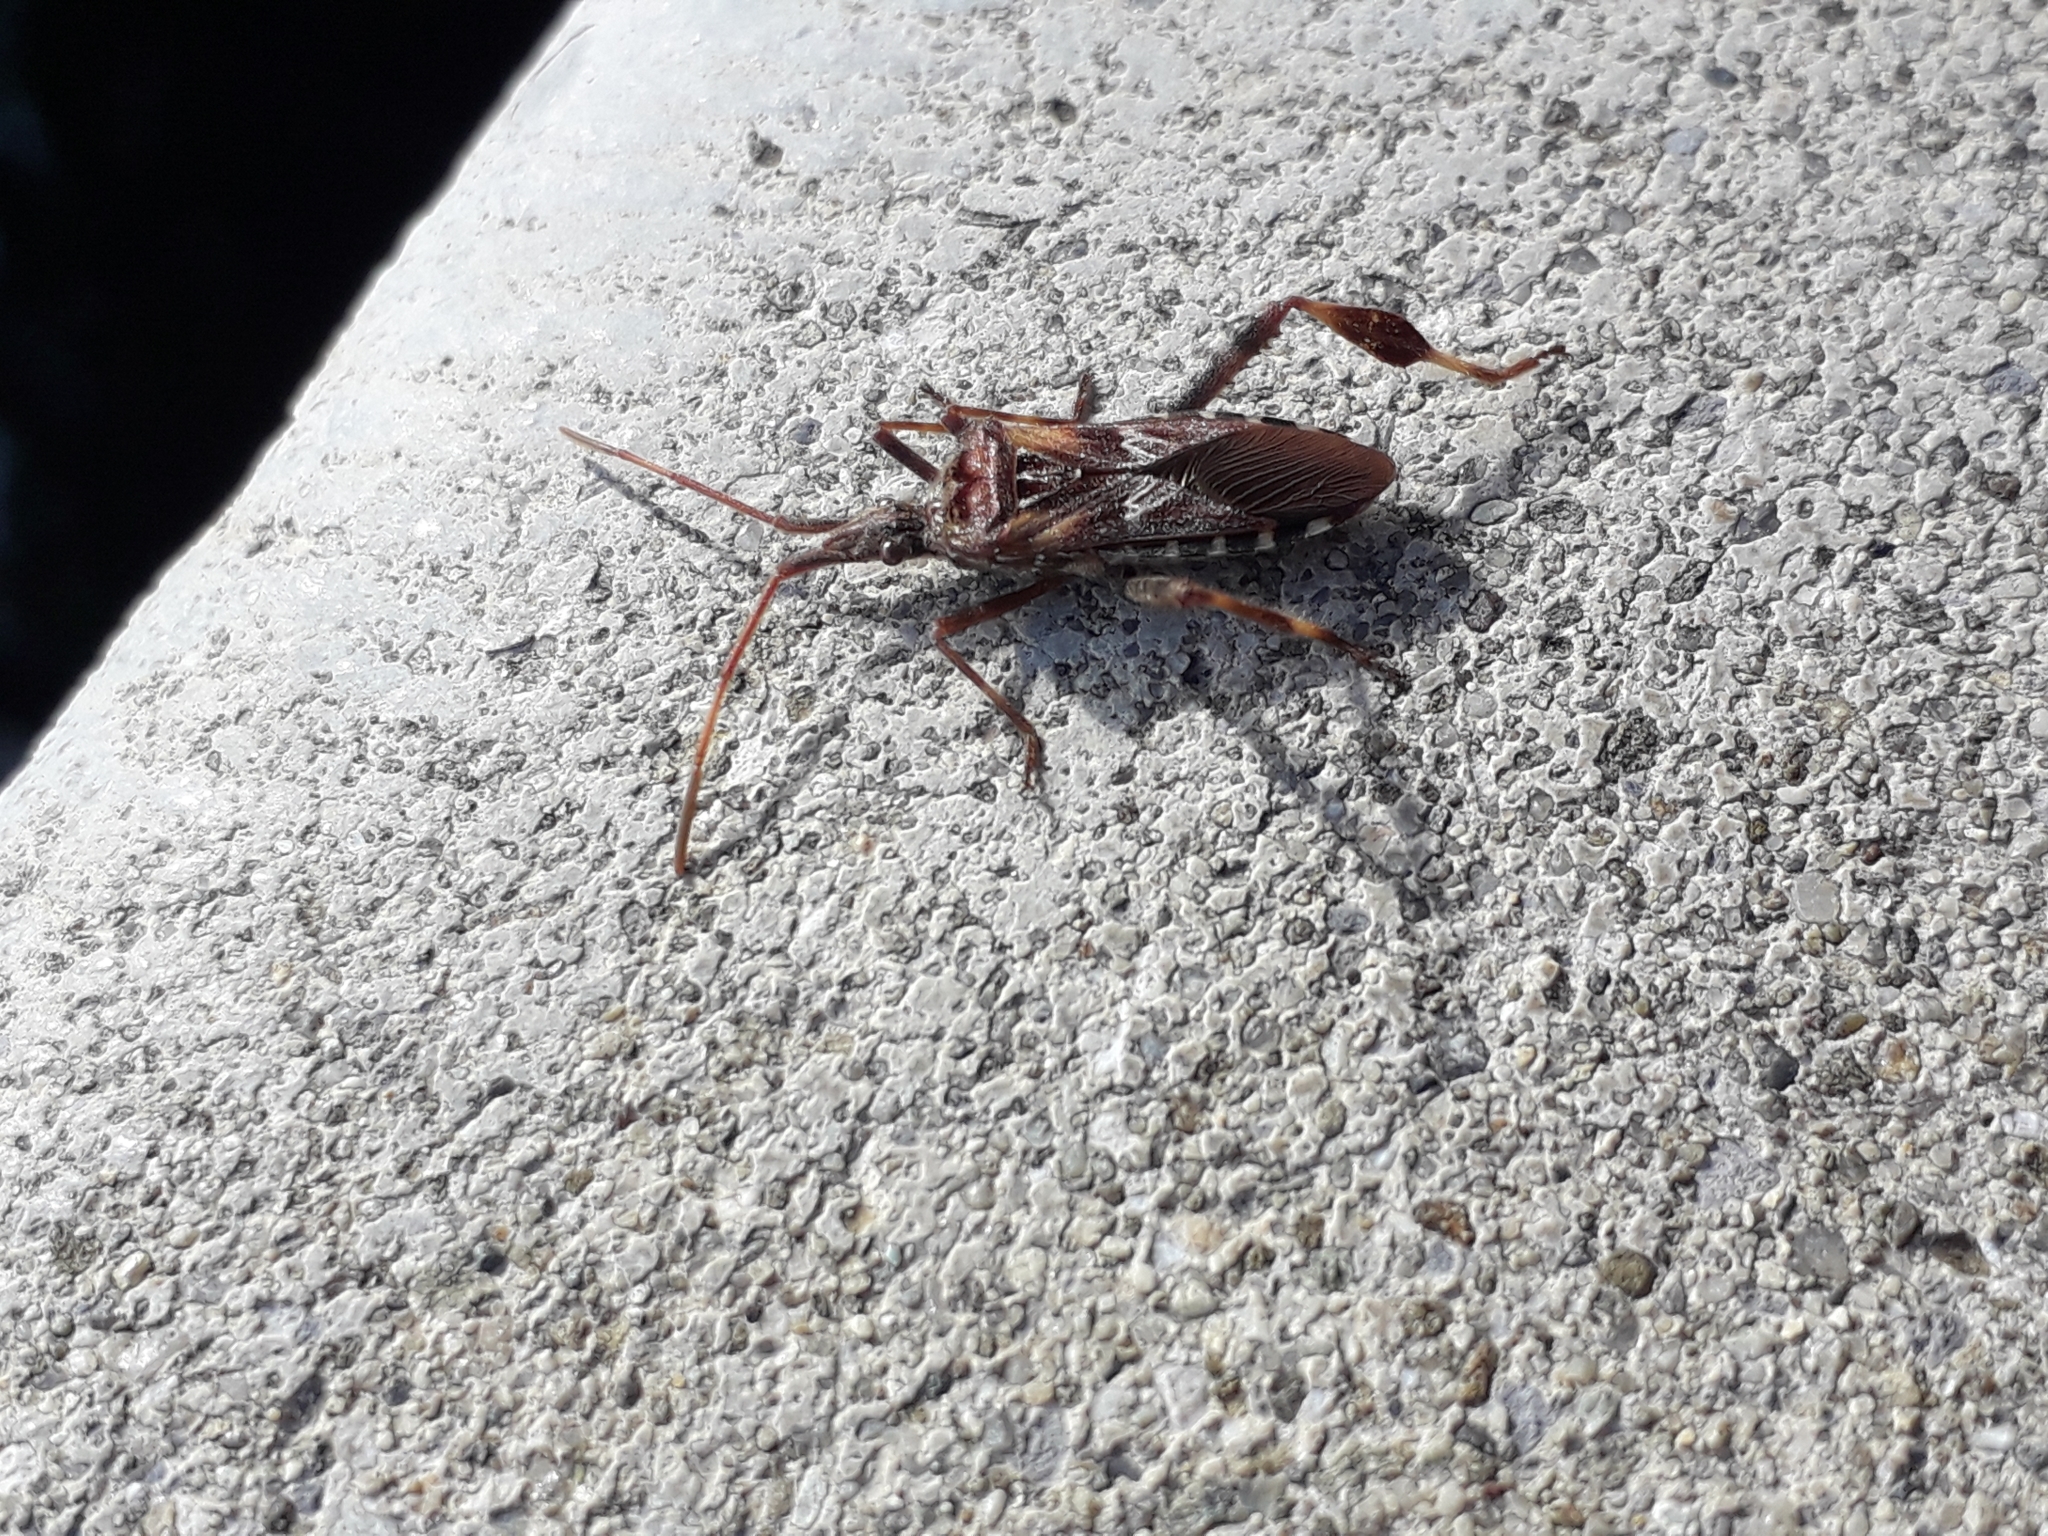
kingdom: Animalia
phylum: Arthropoda
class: Insecta
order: Hemiptera
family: Coreidae
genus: Leptoglossus
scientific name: Leptoglossus occidentalis
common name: Western conifer-seed bug
